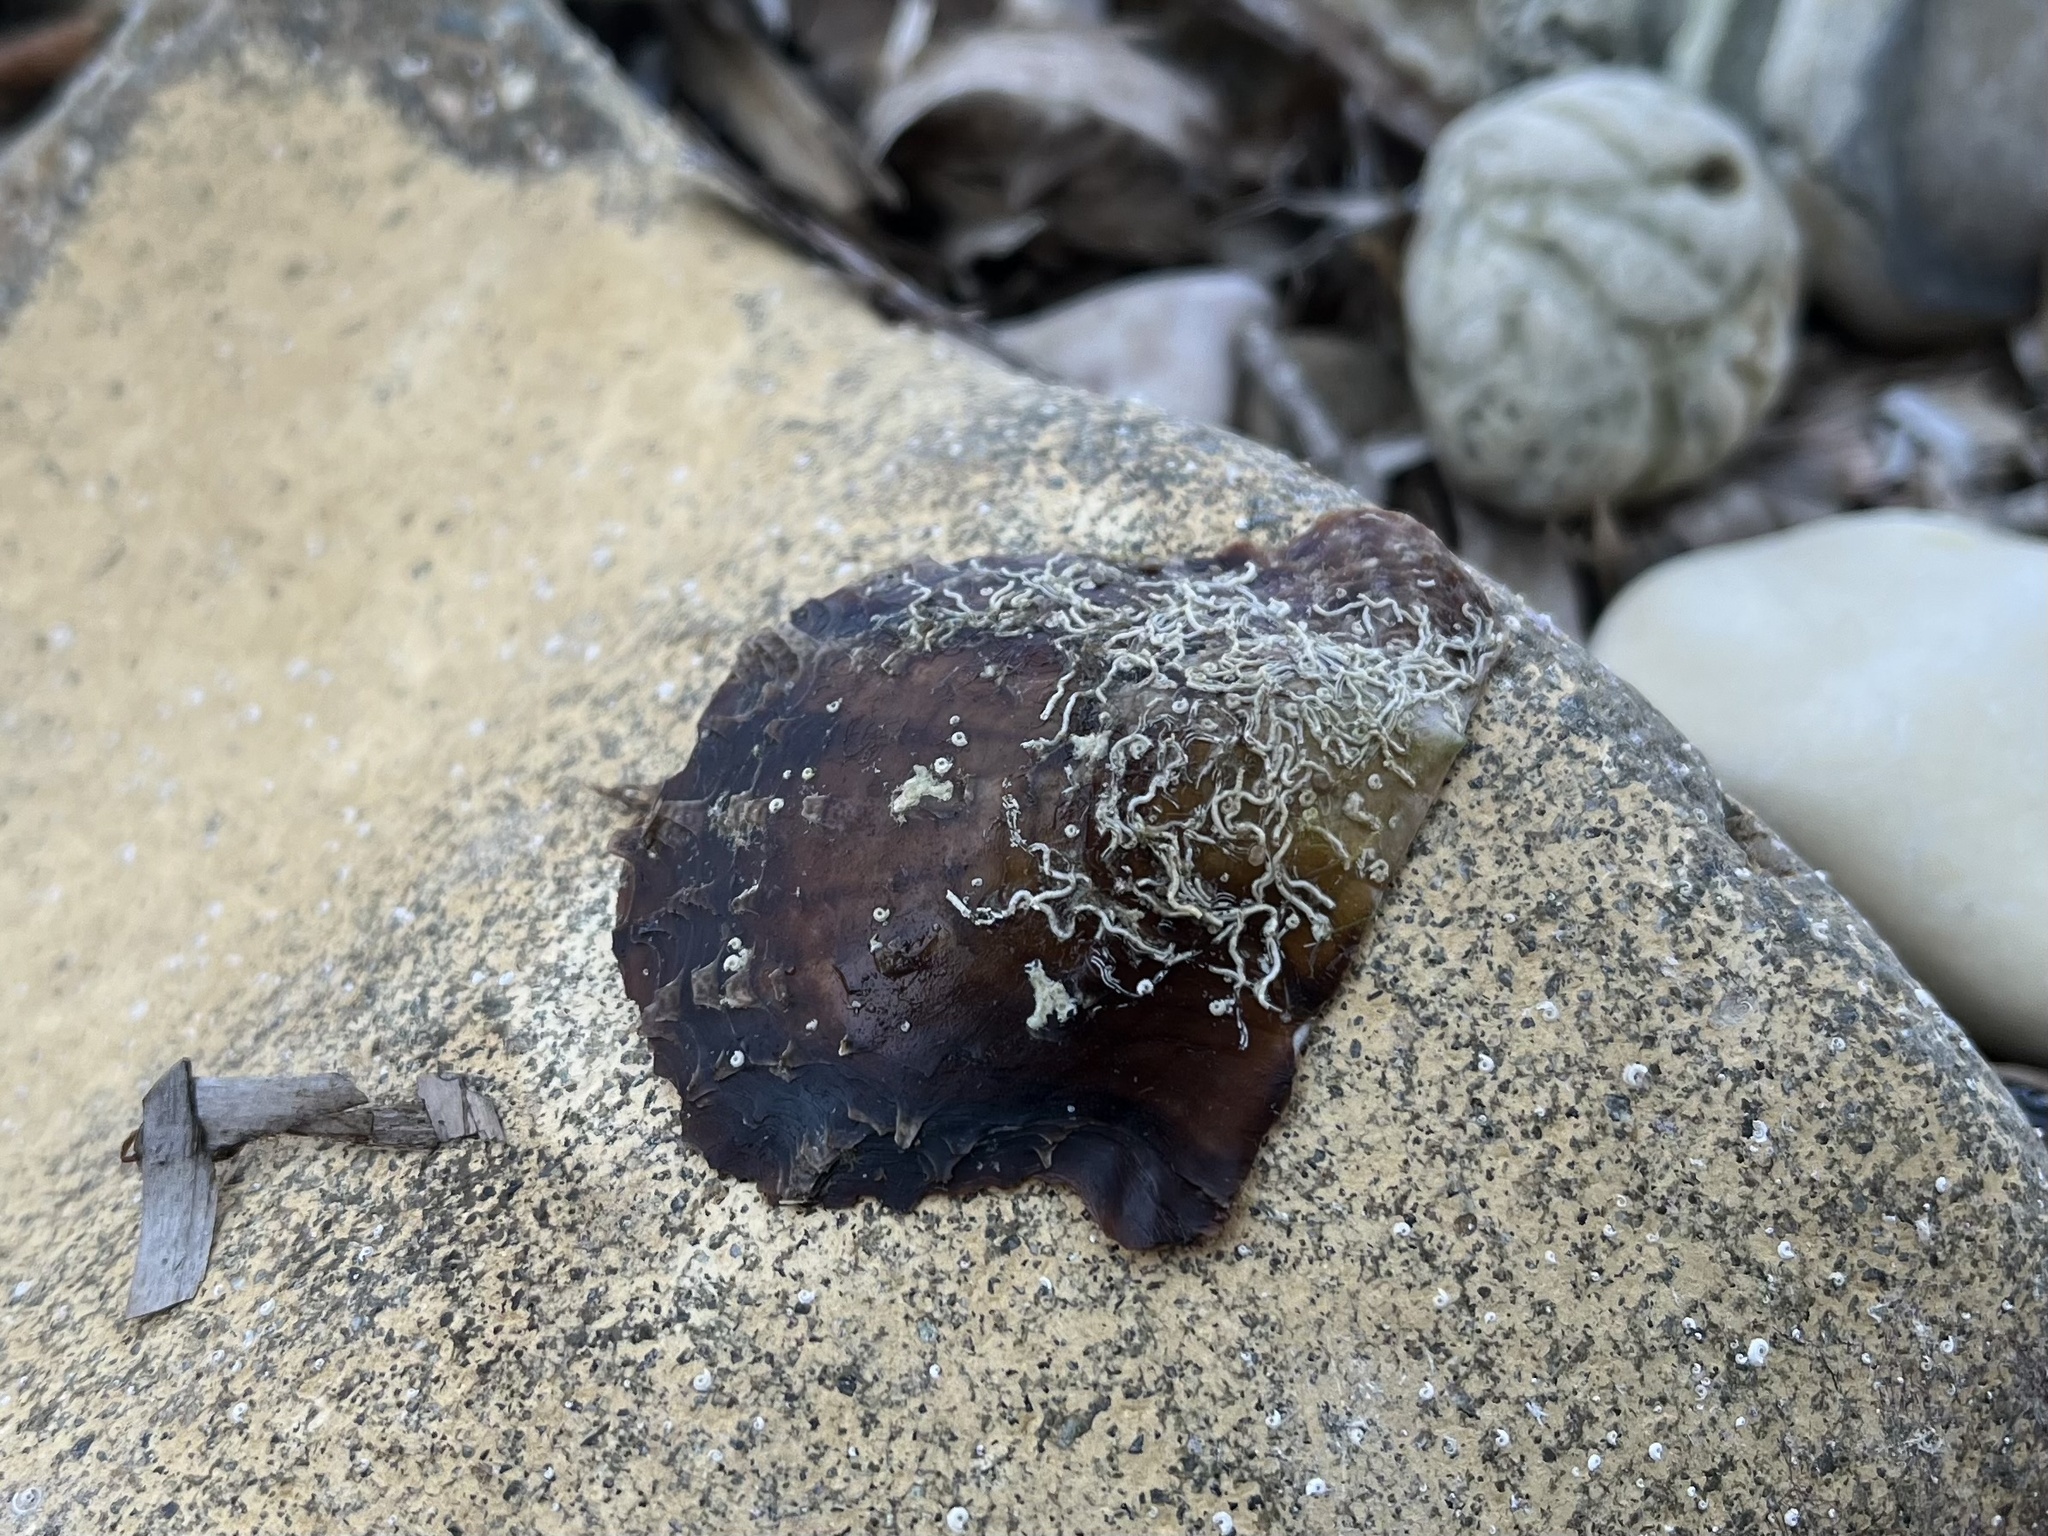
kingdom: Animalia
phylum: Mollusca
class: Bivalvia
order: Ostreida
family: Margaritidae
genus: Pinctada
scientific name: Pinctada radiata
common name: Rayed pearl oyster
